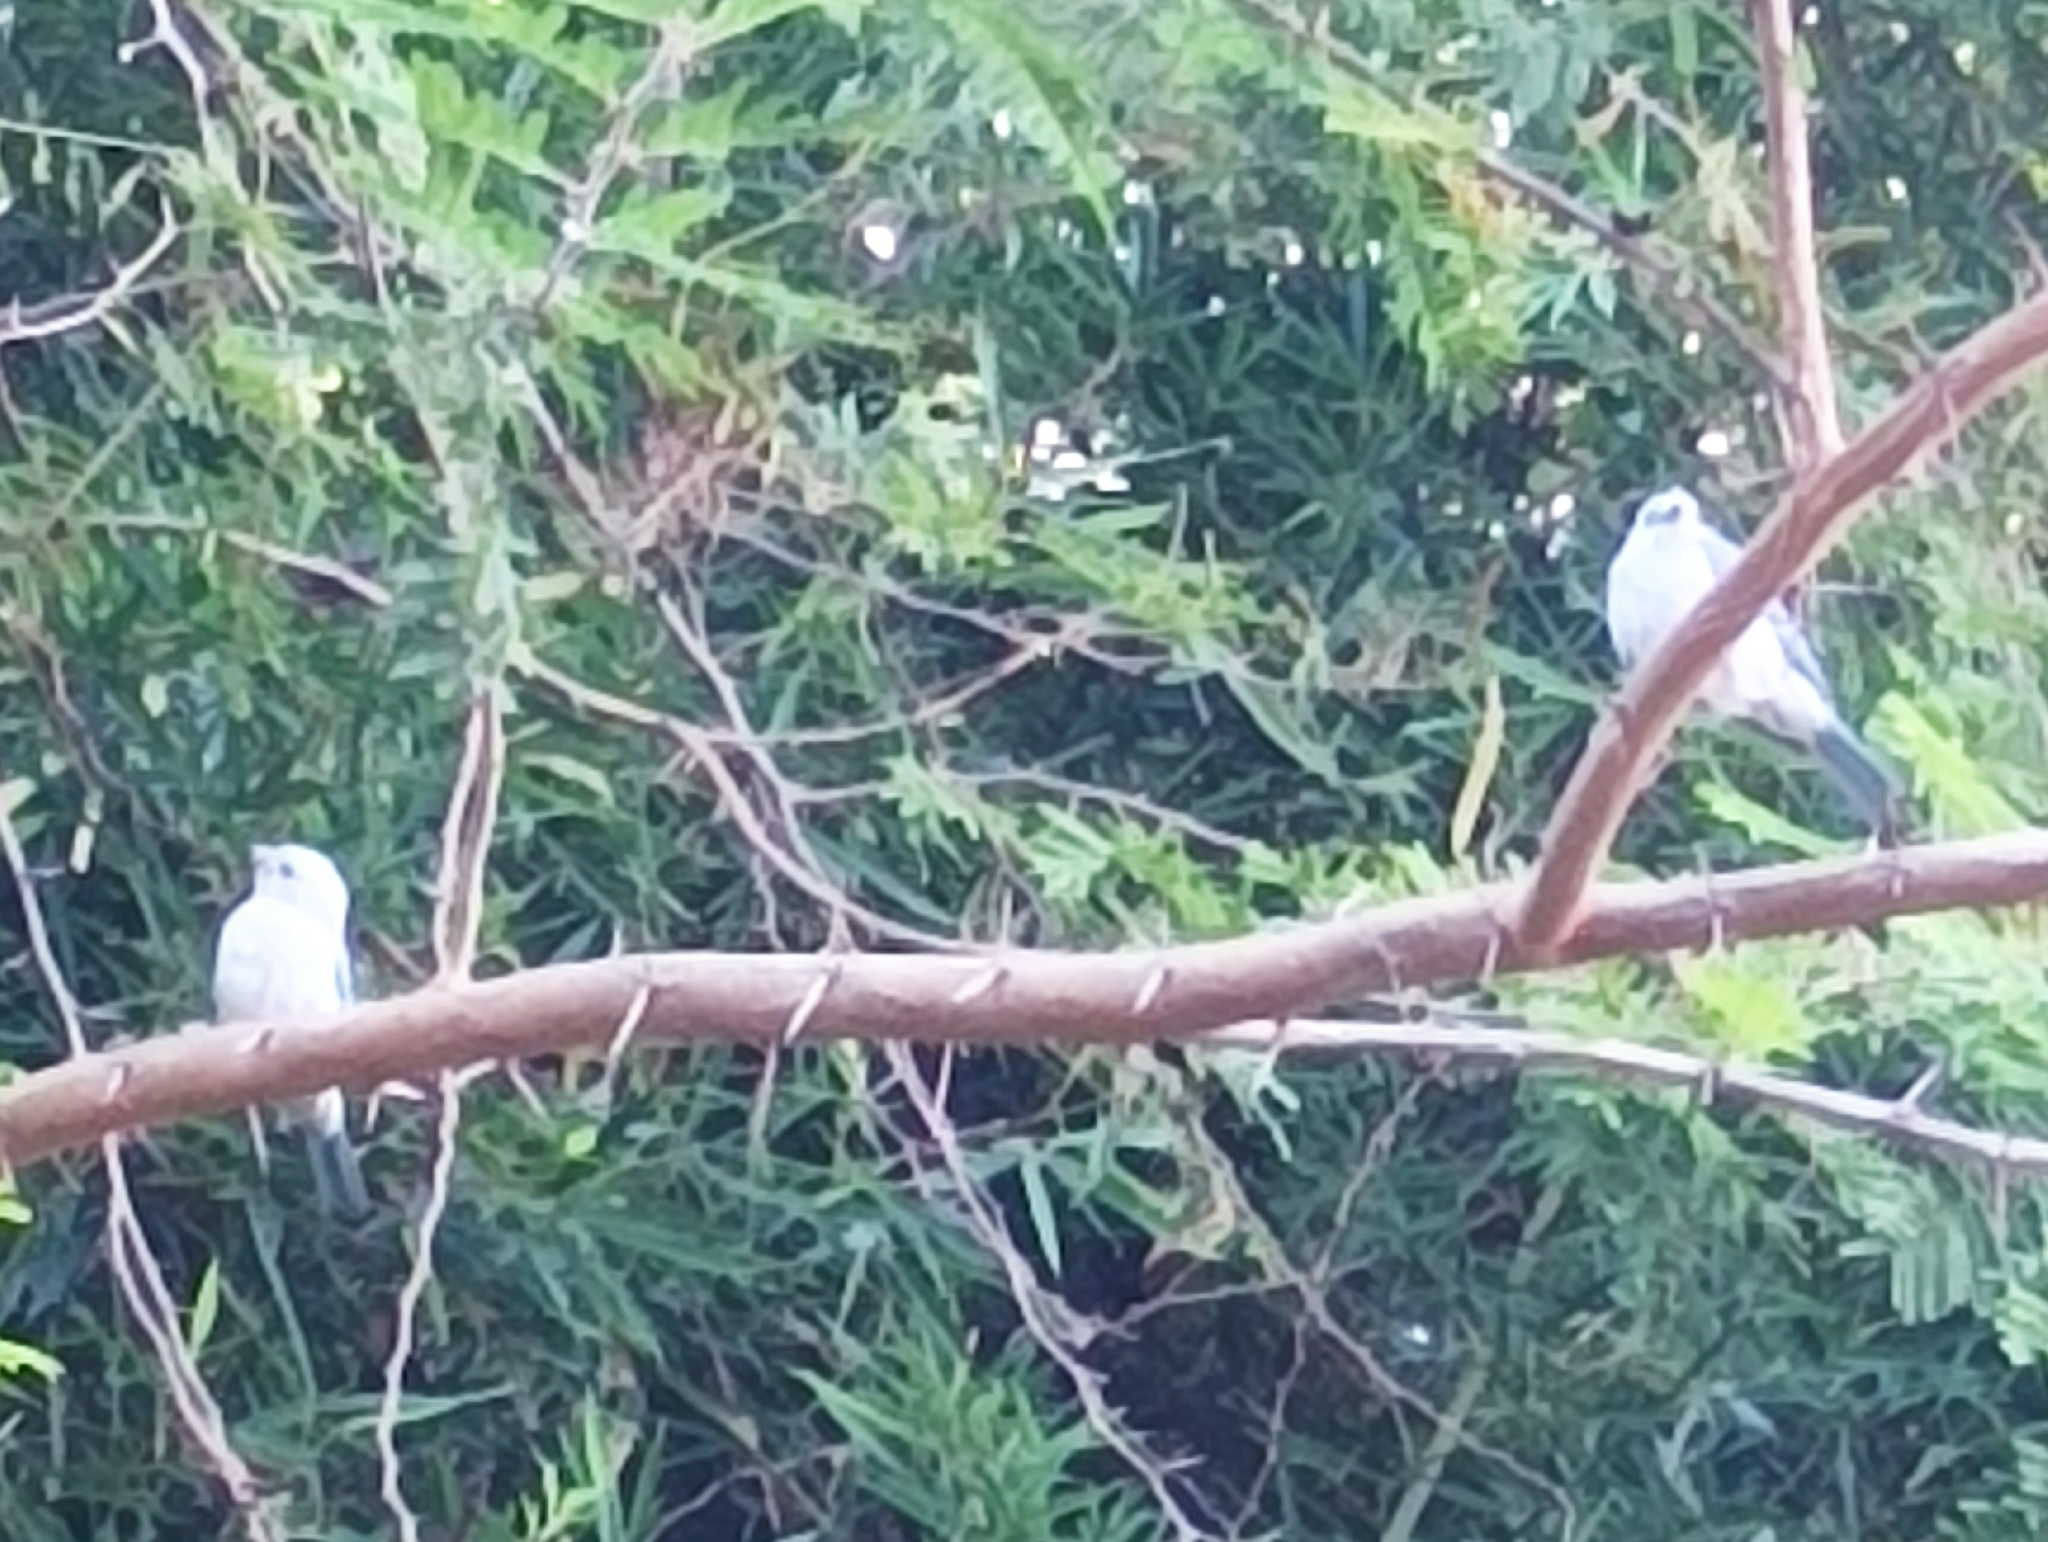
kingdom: Animalia
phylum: Chordata
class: Aves
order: Passeriformes
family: Thraupidae
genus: Thraupis
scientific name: Thraupis episcopus
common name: Blue-grey tanager
